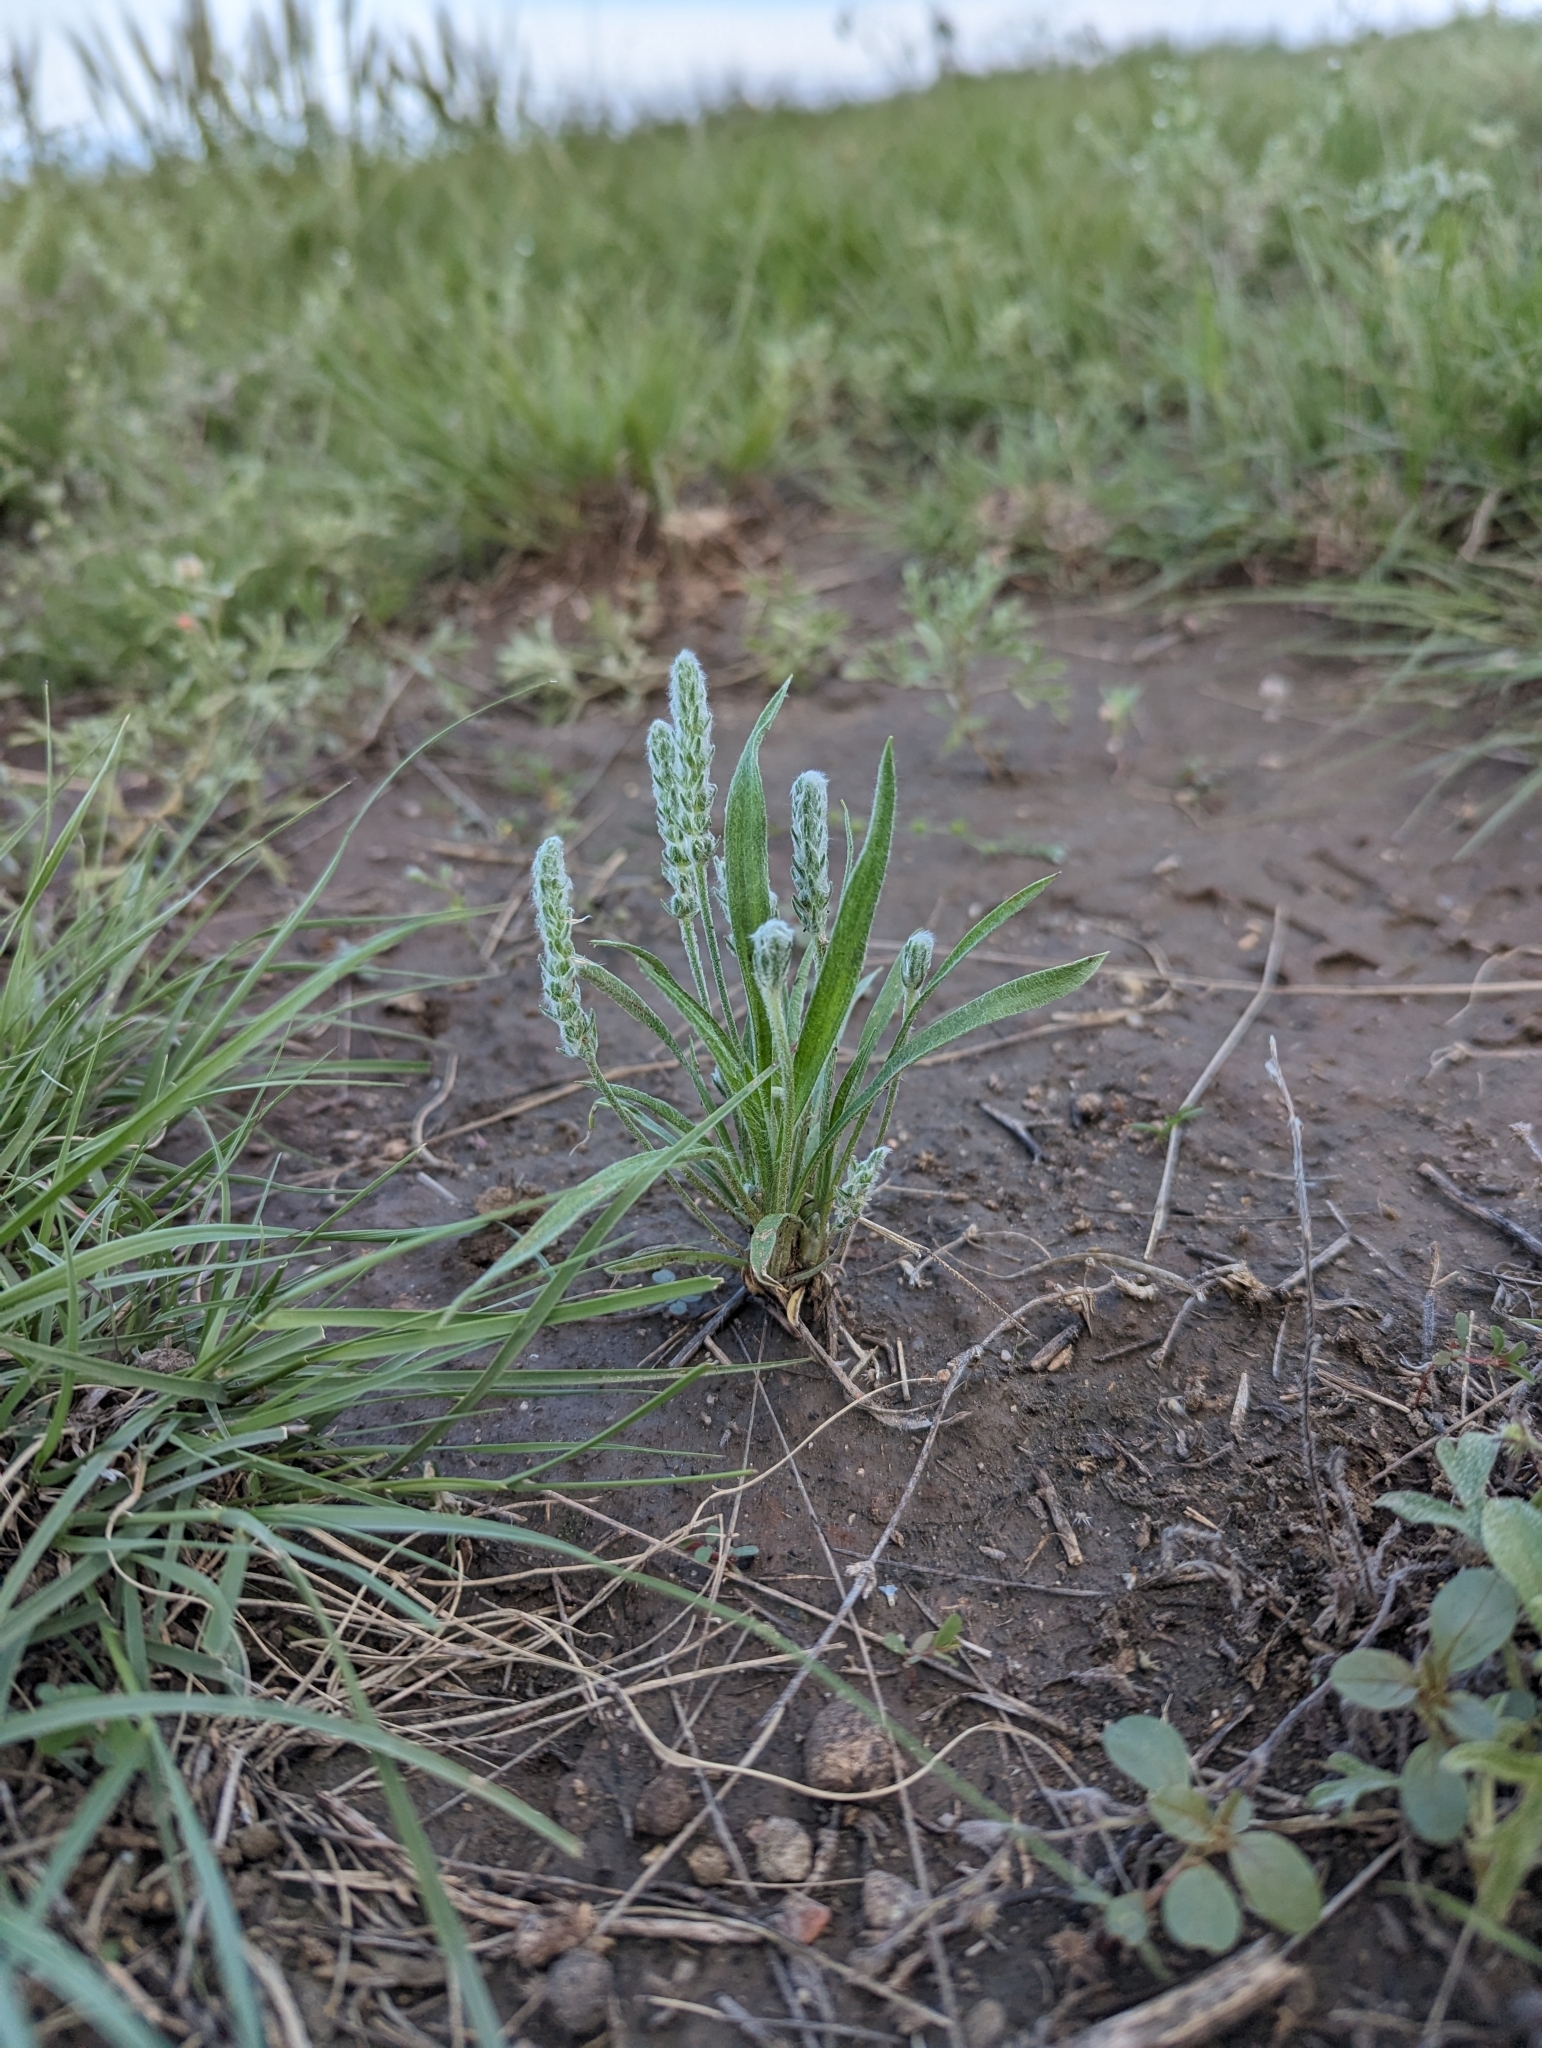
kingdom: Plantae
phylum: Tracheophyta
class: Magnoliopsida
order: Lamiales
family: Plantaginaceae
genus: Plantago
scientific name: Plantago patagonica
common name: Patagonia indian-wheat
